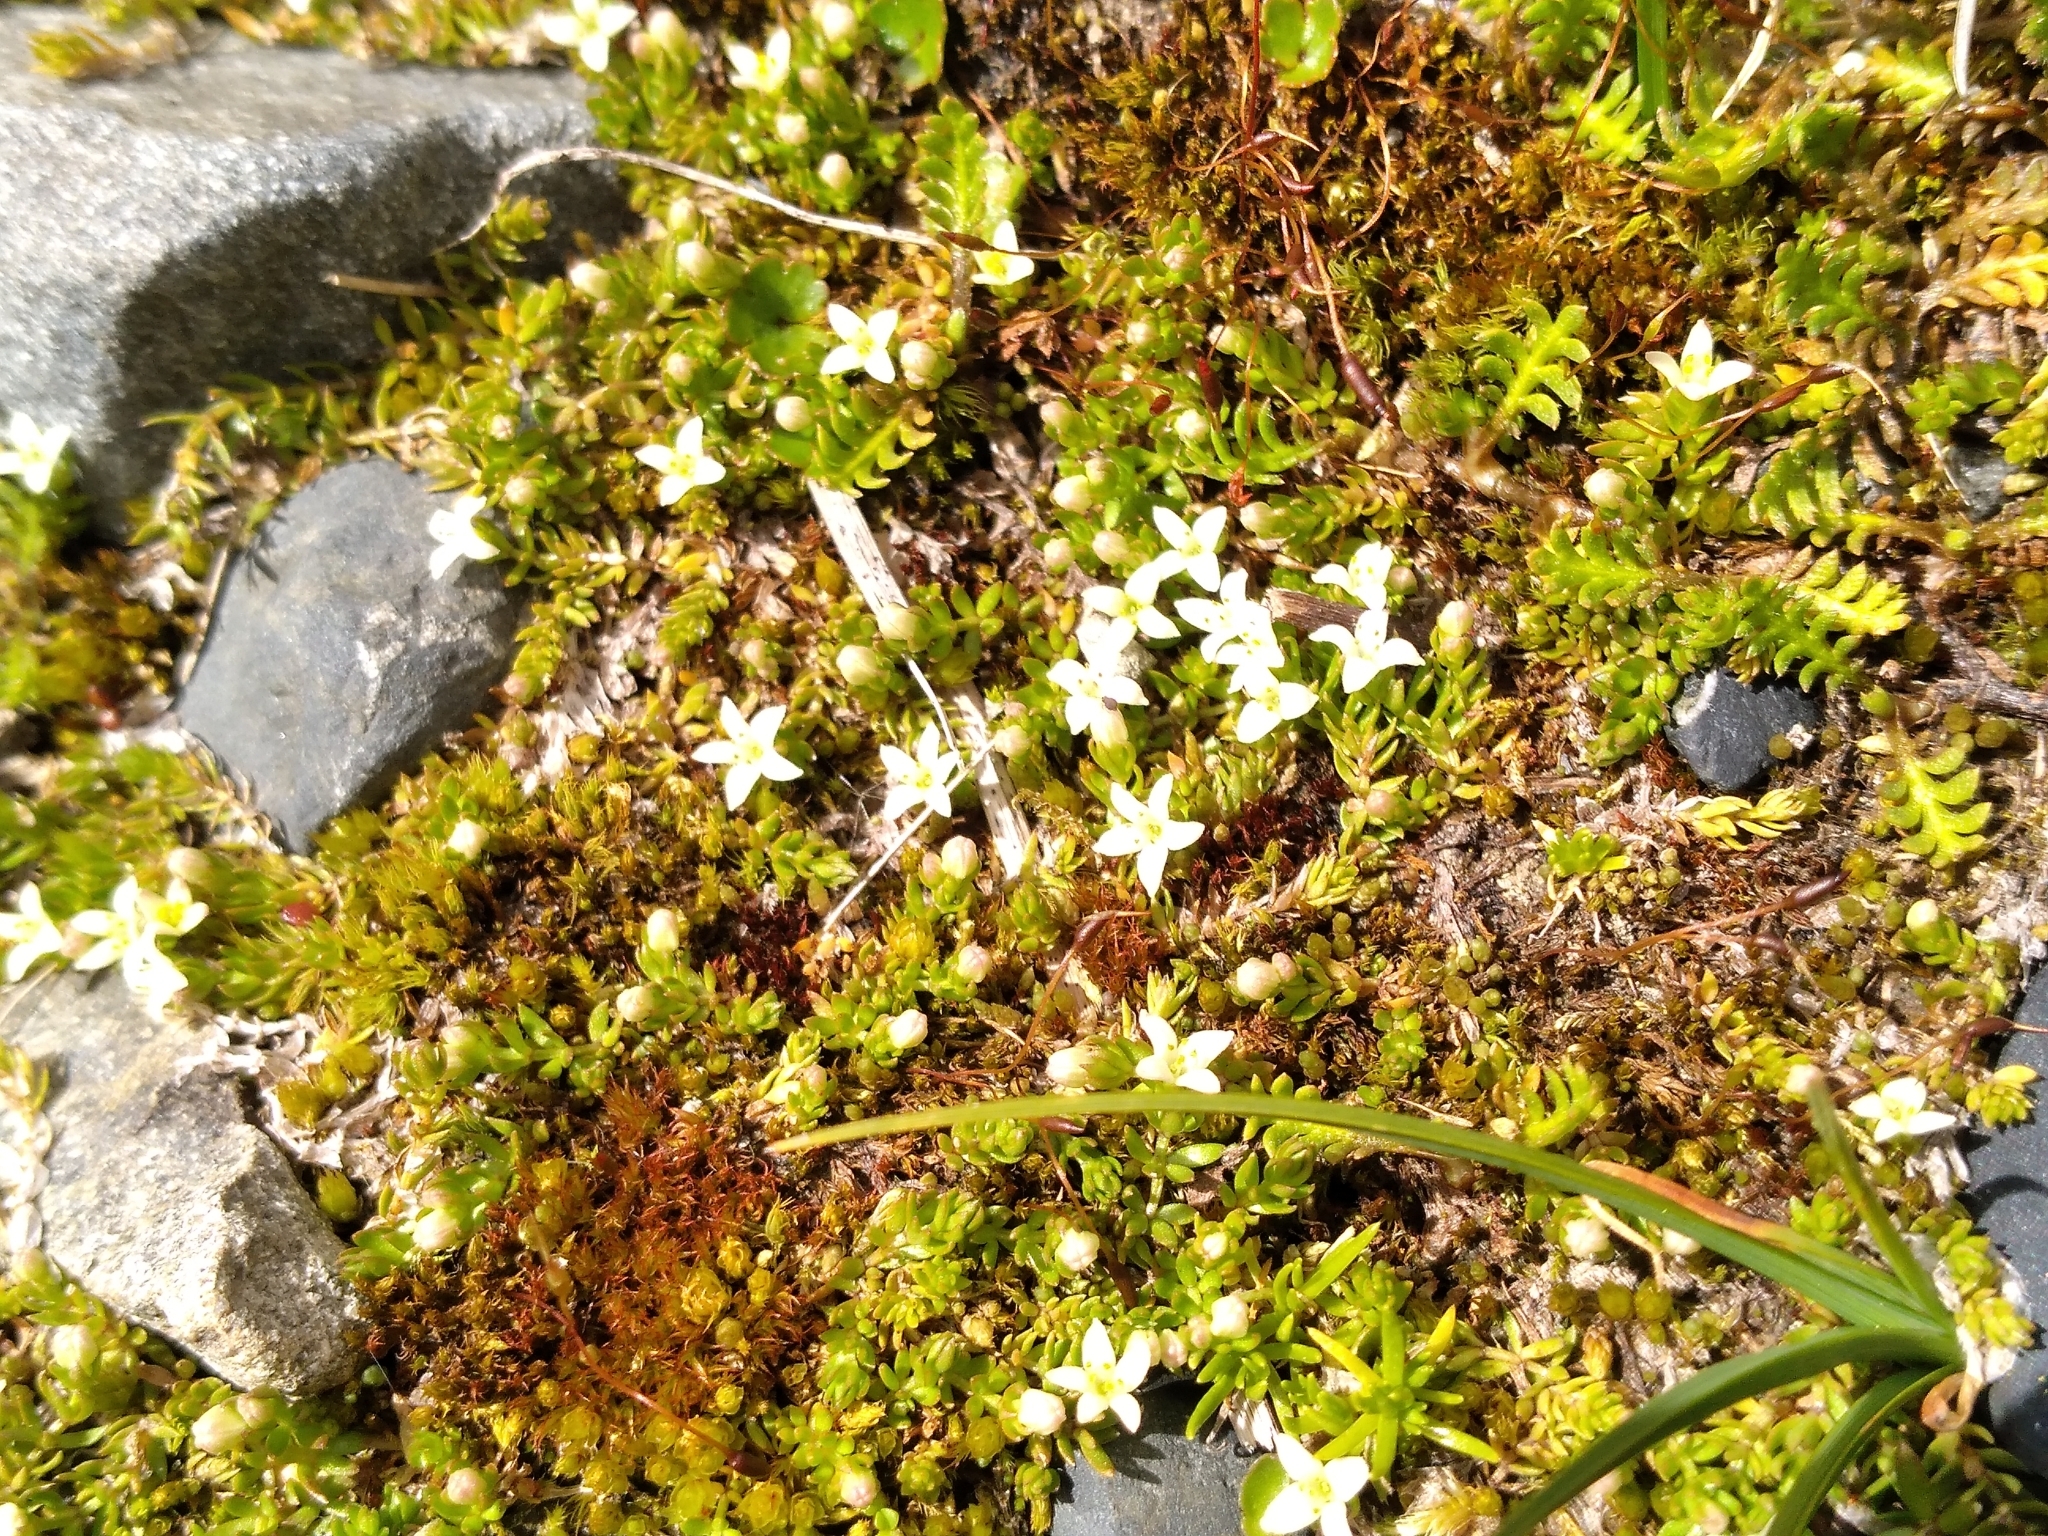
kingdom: Plantae
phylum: Tracheophyta
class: Magnoliopsida
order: Gentianales
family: Rubiaceae
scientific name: Rubiaceae
